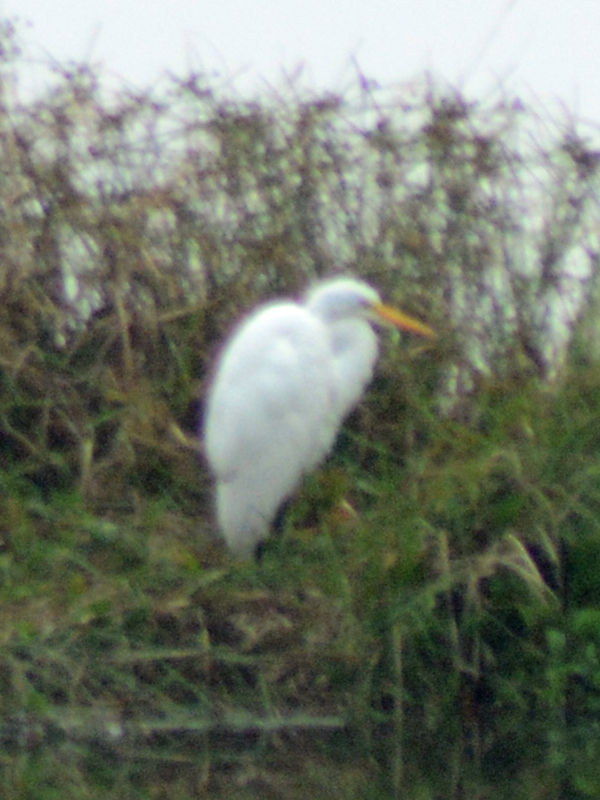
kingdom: Animalia
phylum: Chordata
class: Aves
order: Pelecaniformes
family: Ardeidae
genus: Ardea
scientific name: Ardea alba
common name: Great egret
